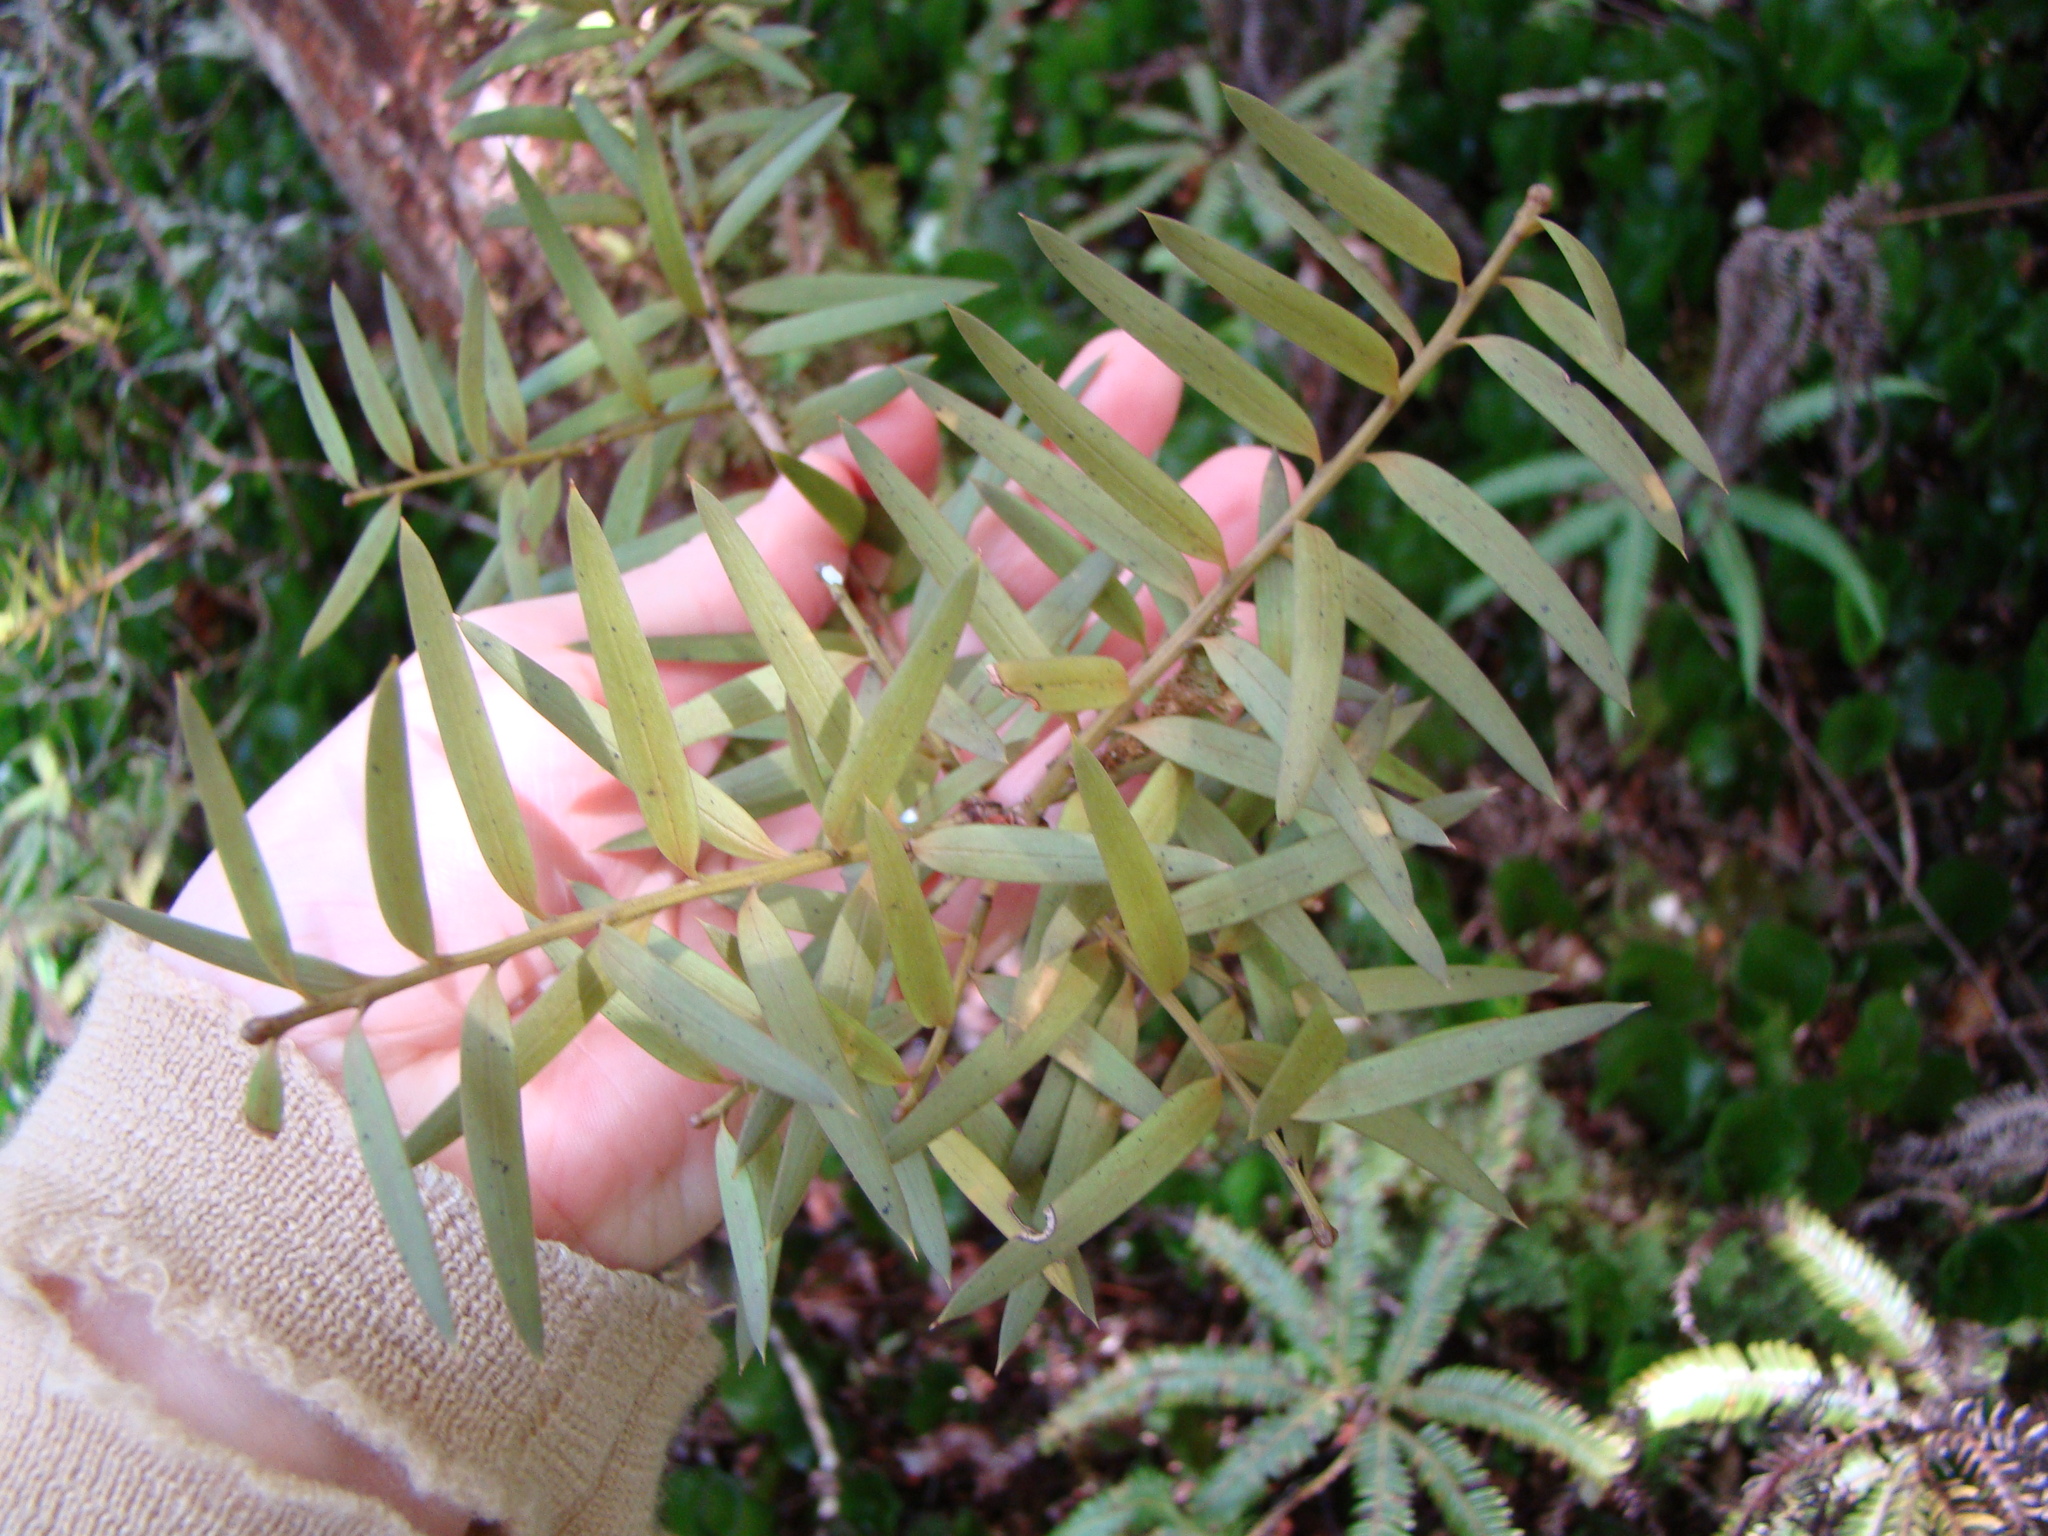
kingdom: Plantae
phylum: Tracheophyta
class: Pinopsida
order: Pinales
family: Podocarpaceae
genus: Podocarpus
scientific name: Podocarpus totara
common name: Totara
